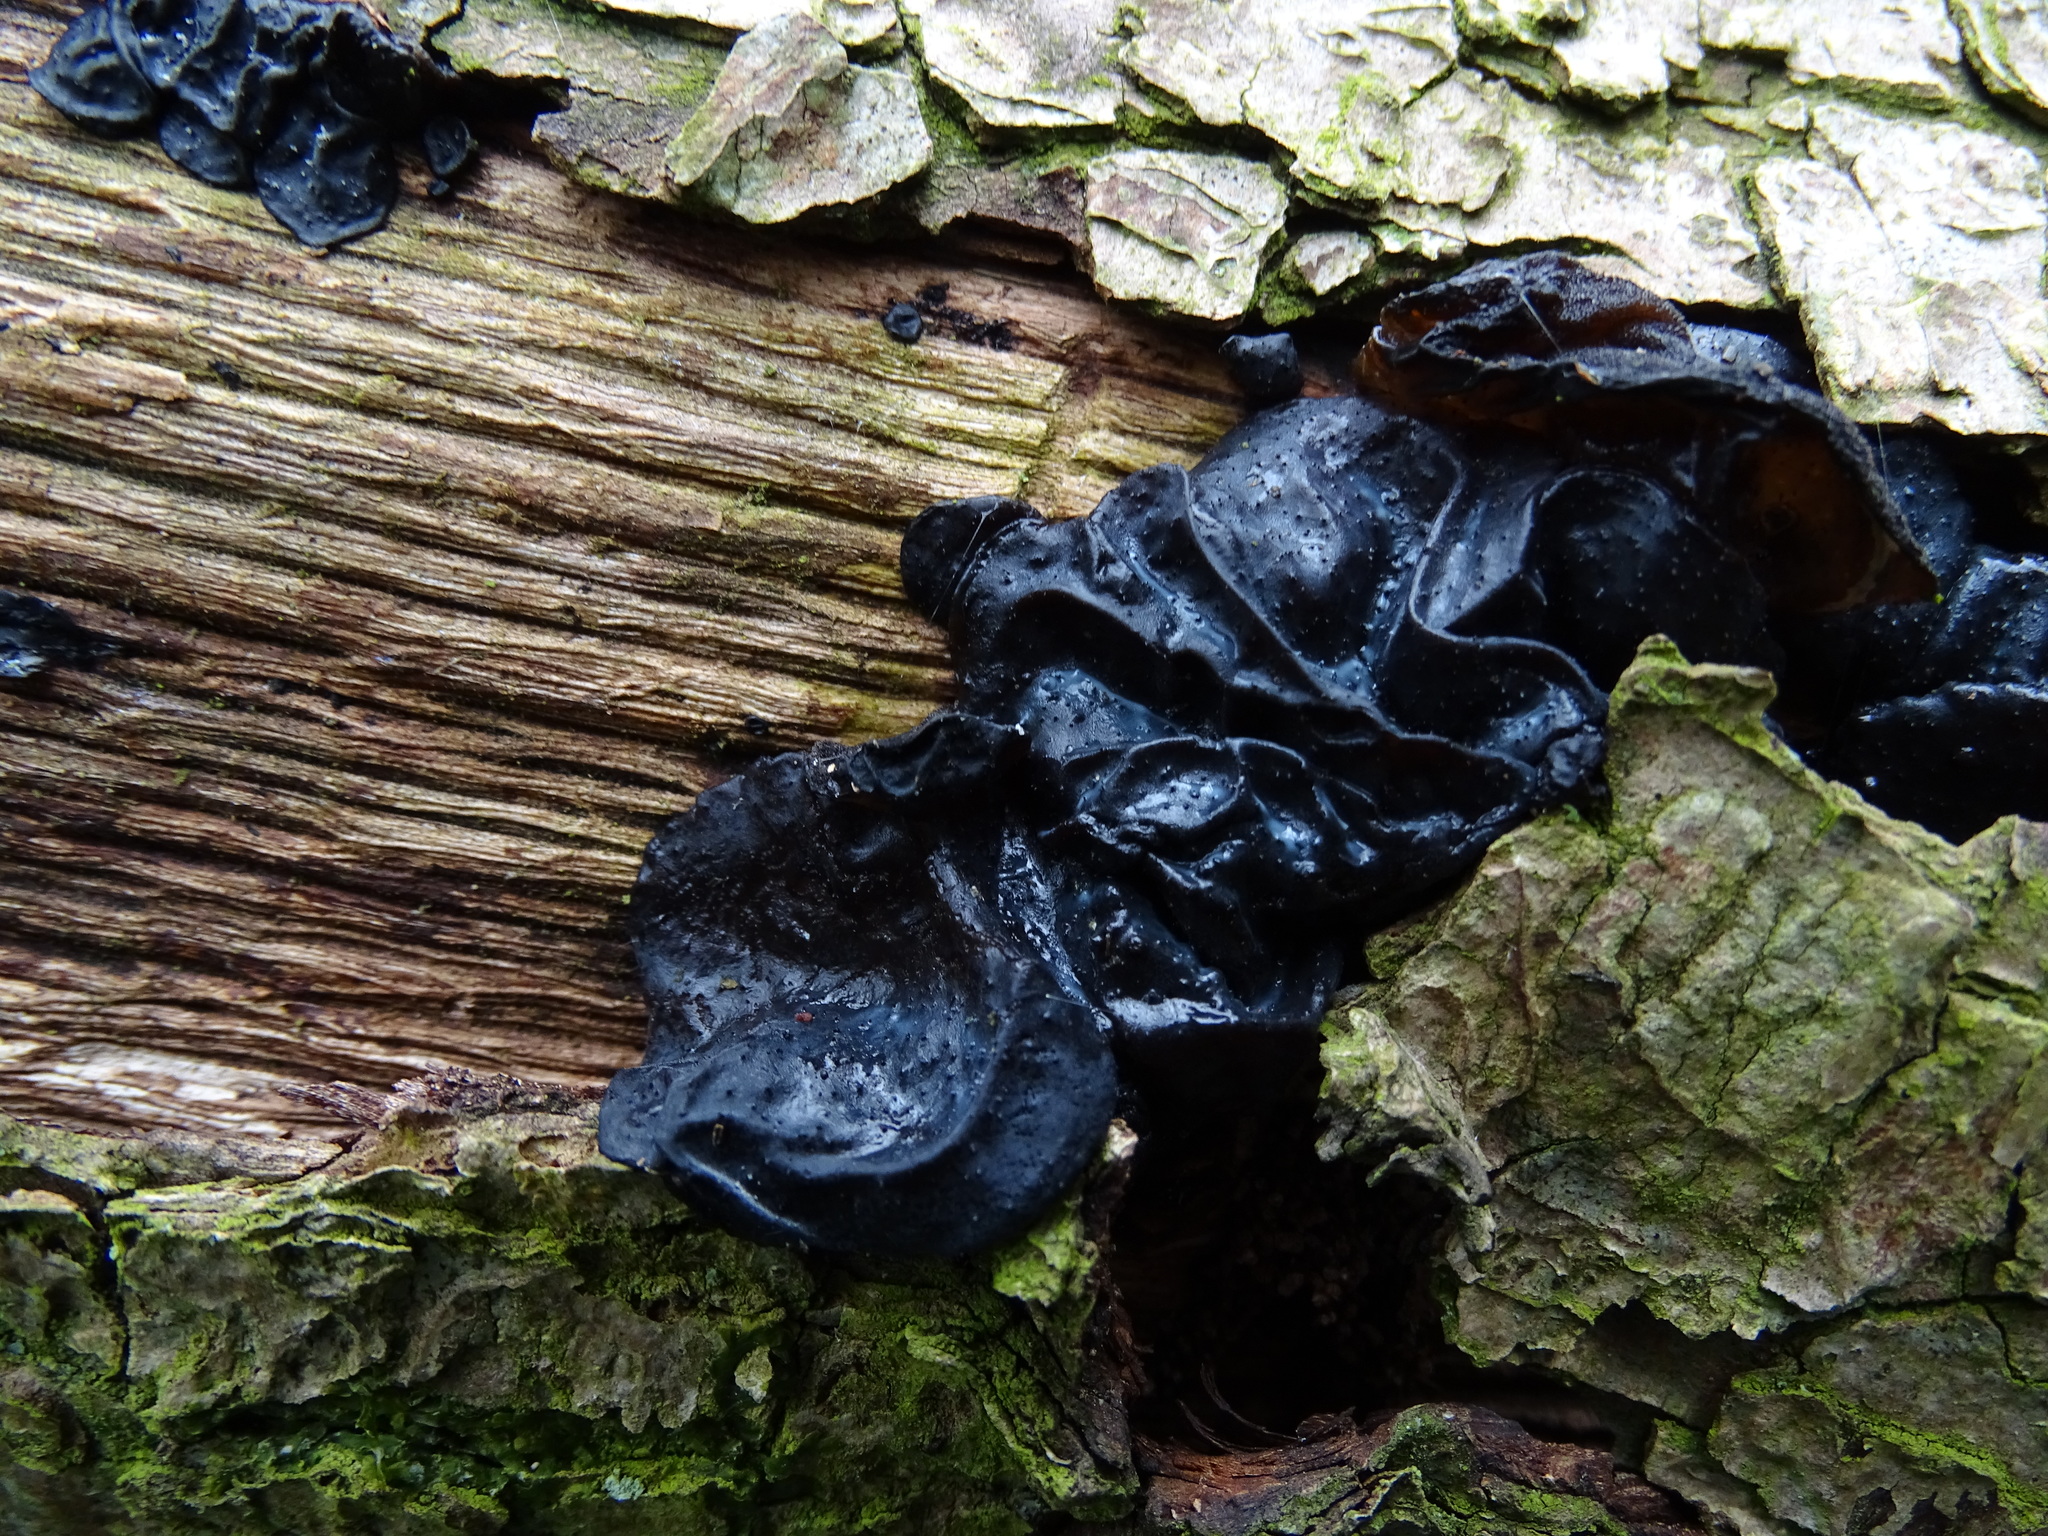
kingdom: Fungi
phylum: Basidiomycota
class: Agaricomycetes
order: Auriculariales
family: Auriculariaceae
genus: Exidia
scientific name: Exidia glandulosa
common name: Witches' butter
